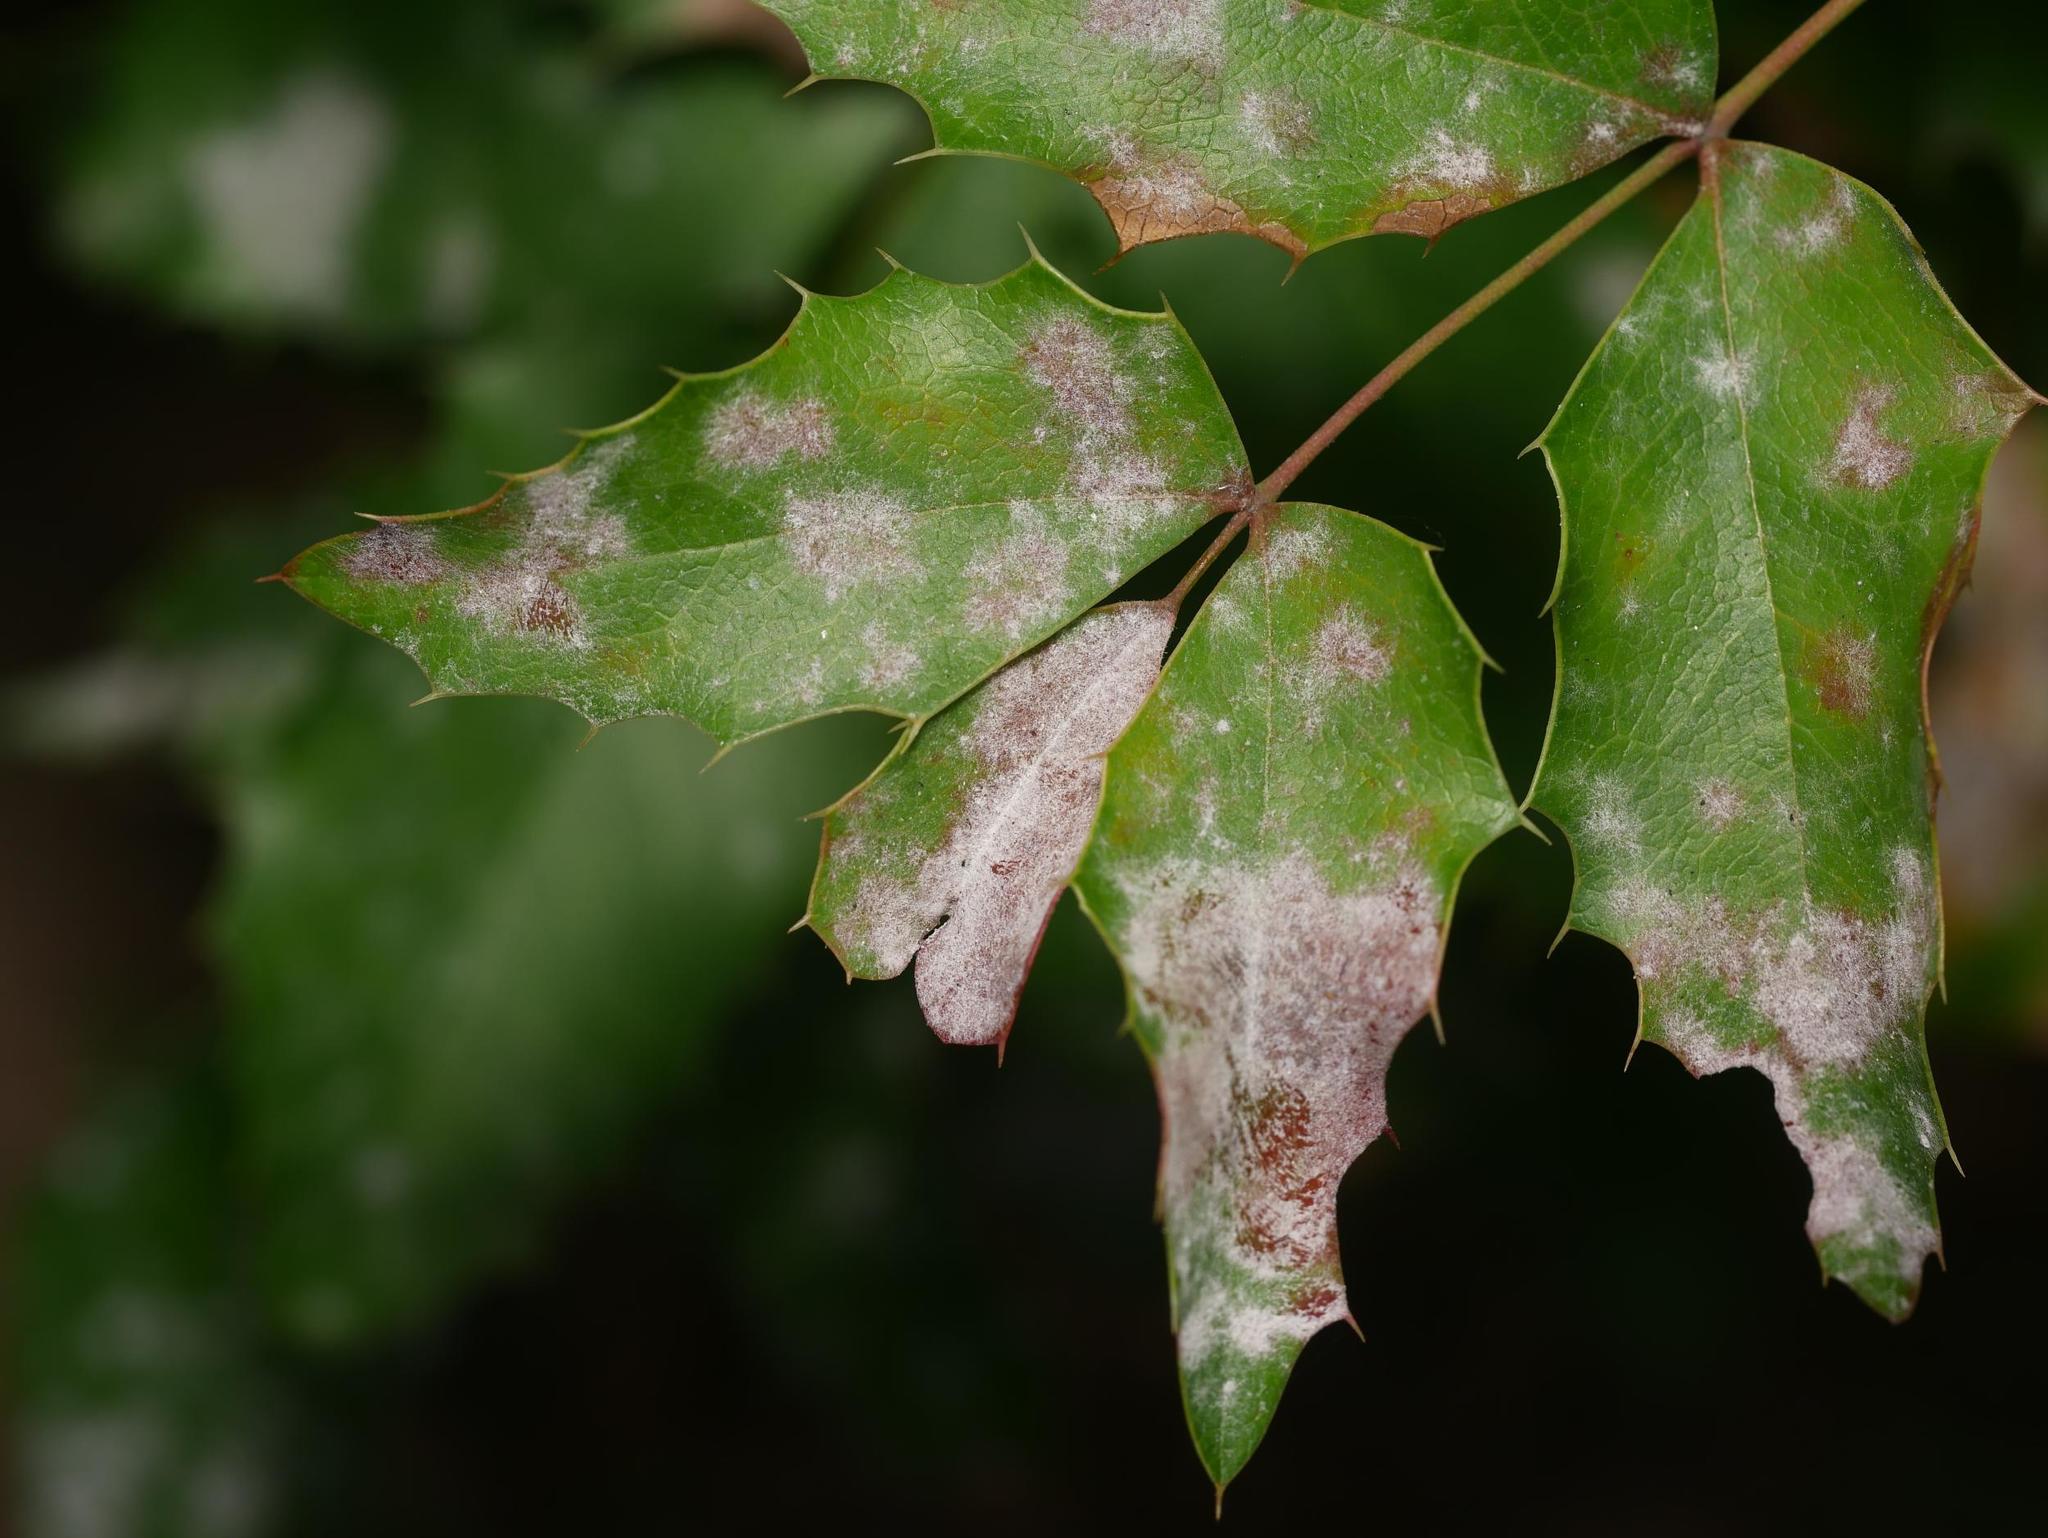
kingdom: Fungi
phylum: Ascomycota
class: Leotiomycetes
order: Helotiales
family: Erysiphaceae
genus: Erysiphe
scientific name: Erysiphe berberidis
